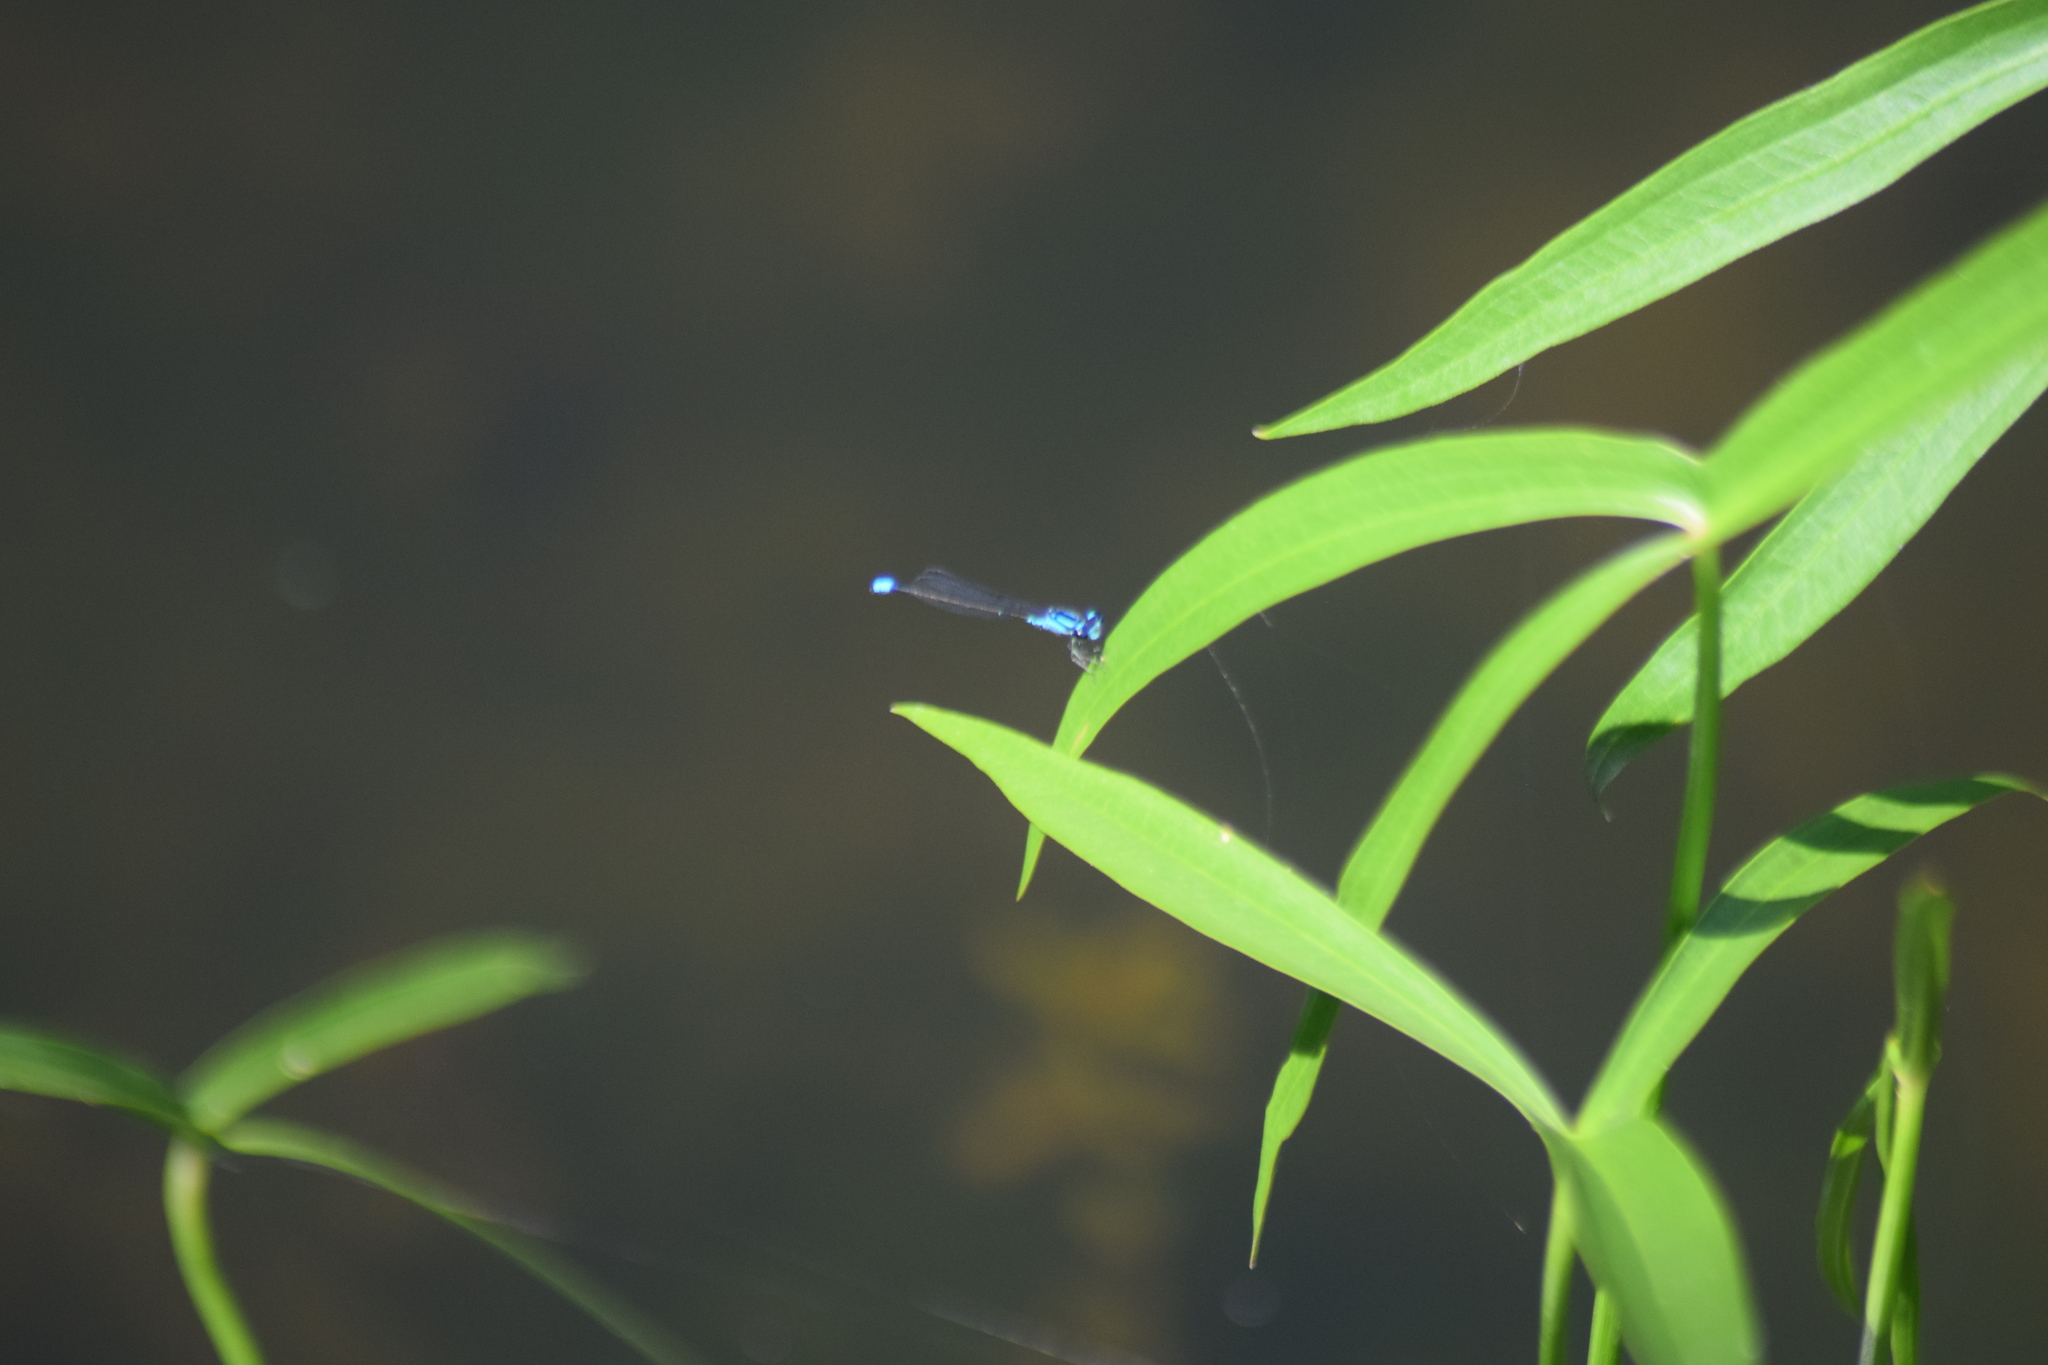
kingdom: Animalia
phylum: Arthropoda
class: Insecta
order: Odonata
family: Coenagrionidae
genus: Enallagma
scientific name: Enallagma geminatum
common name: Skimming bluet
